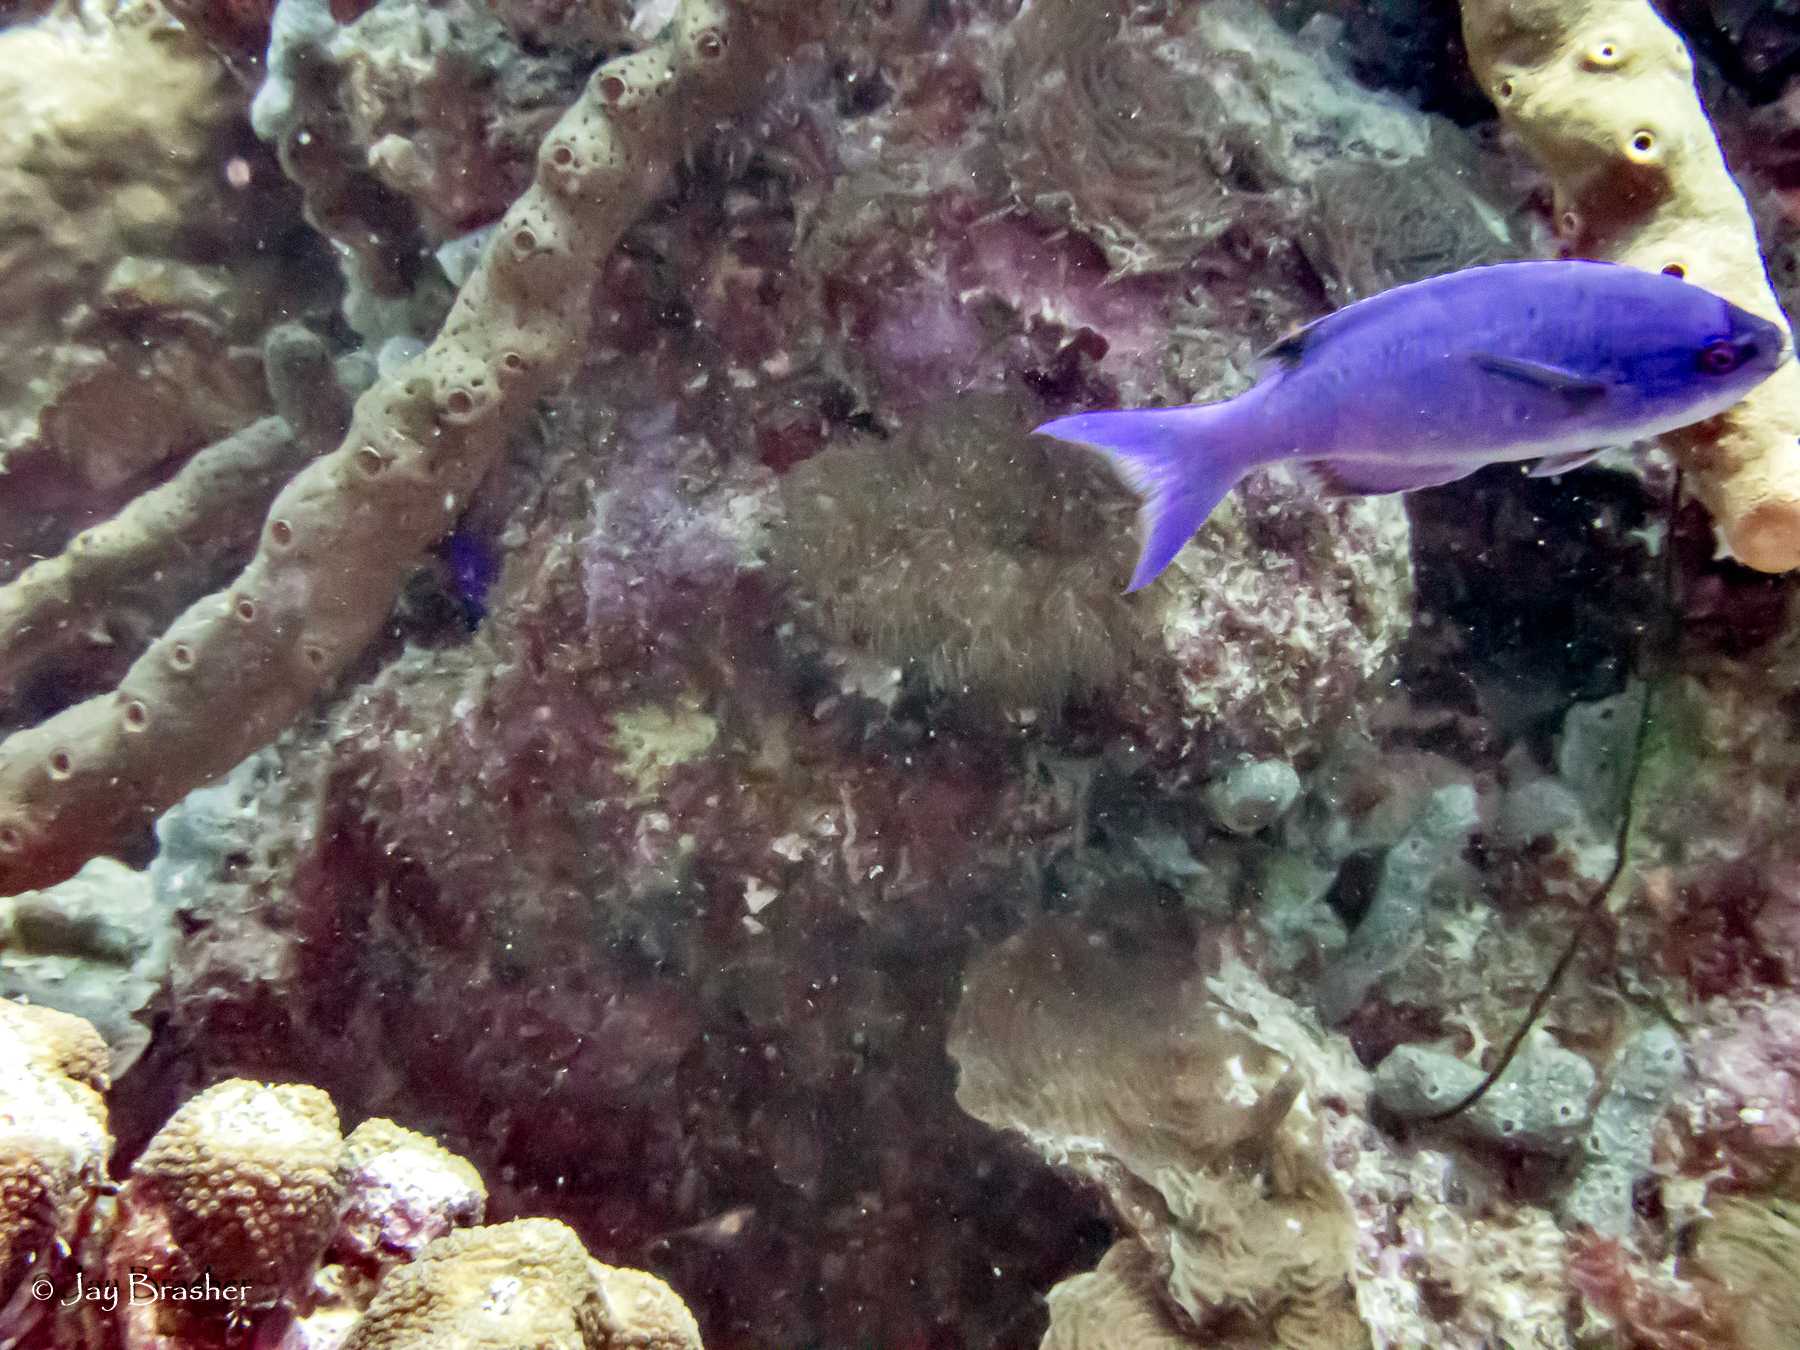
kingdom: Animalia
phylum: Chordata
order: Perciformes
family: Labridae
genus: Bodianus
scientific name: Bodianus
